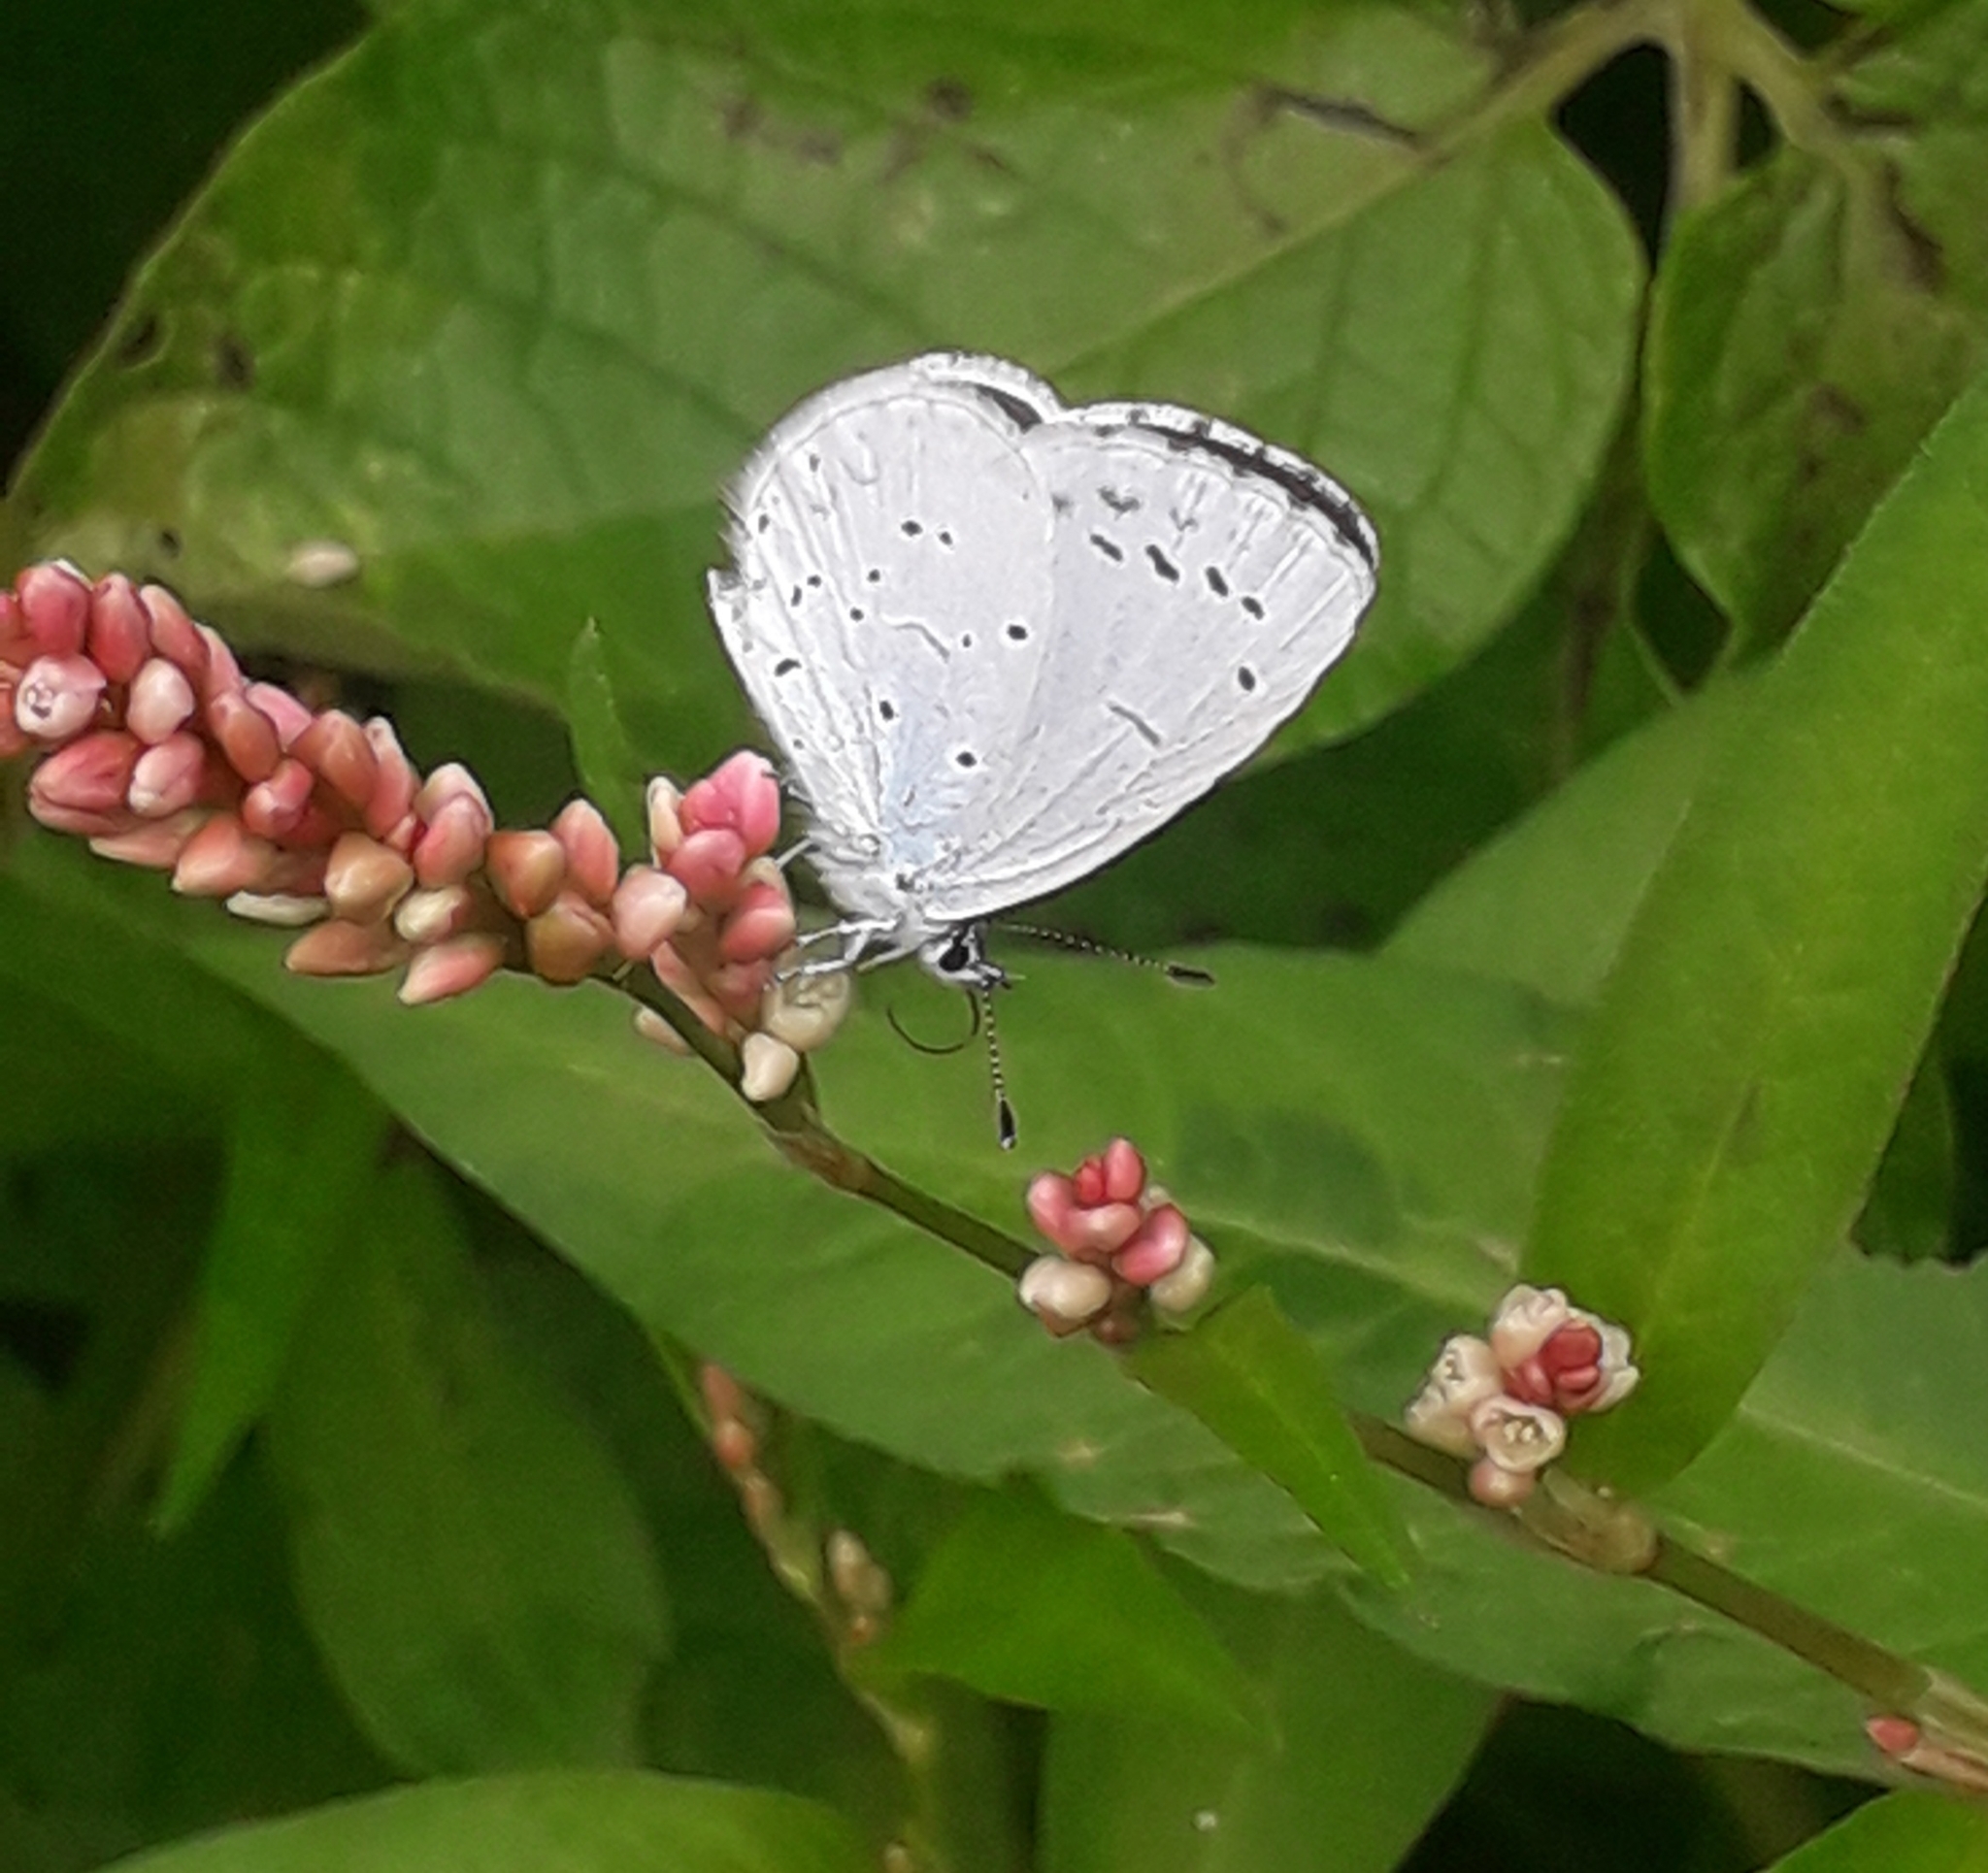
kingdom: Animalia
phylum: Arthropoda
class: Insecta
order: Lepidoptera
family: Lycaenidae
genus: Celastrina
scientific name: Celastrina argiolus
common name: Holly blue
